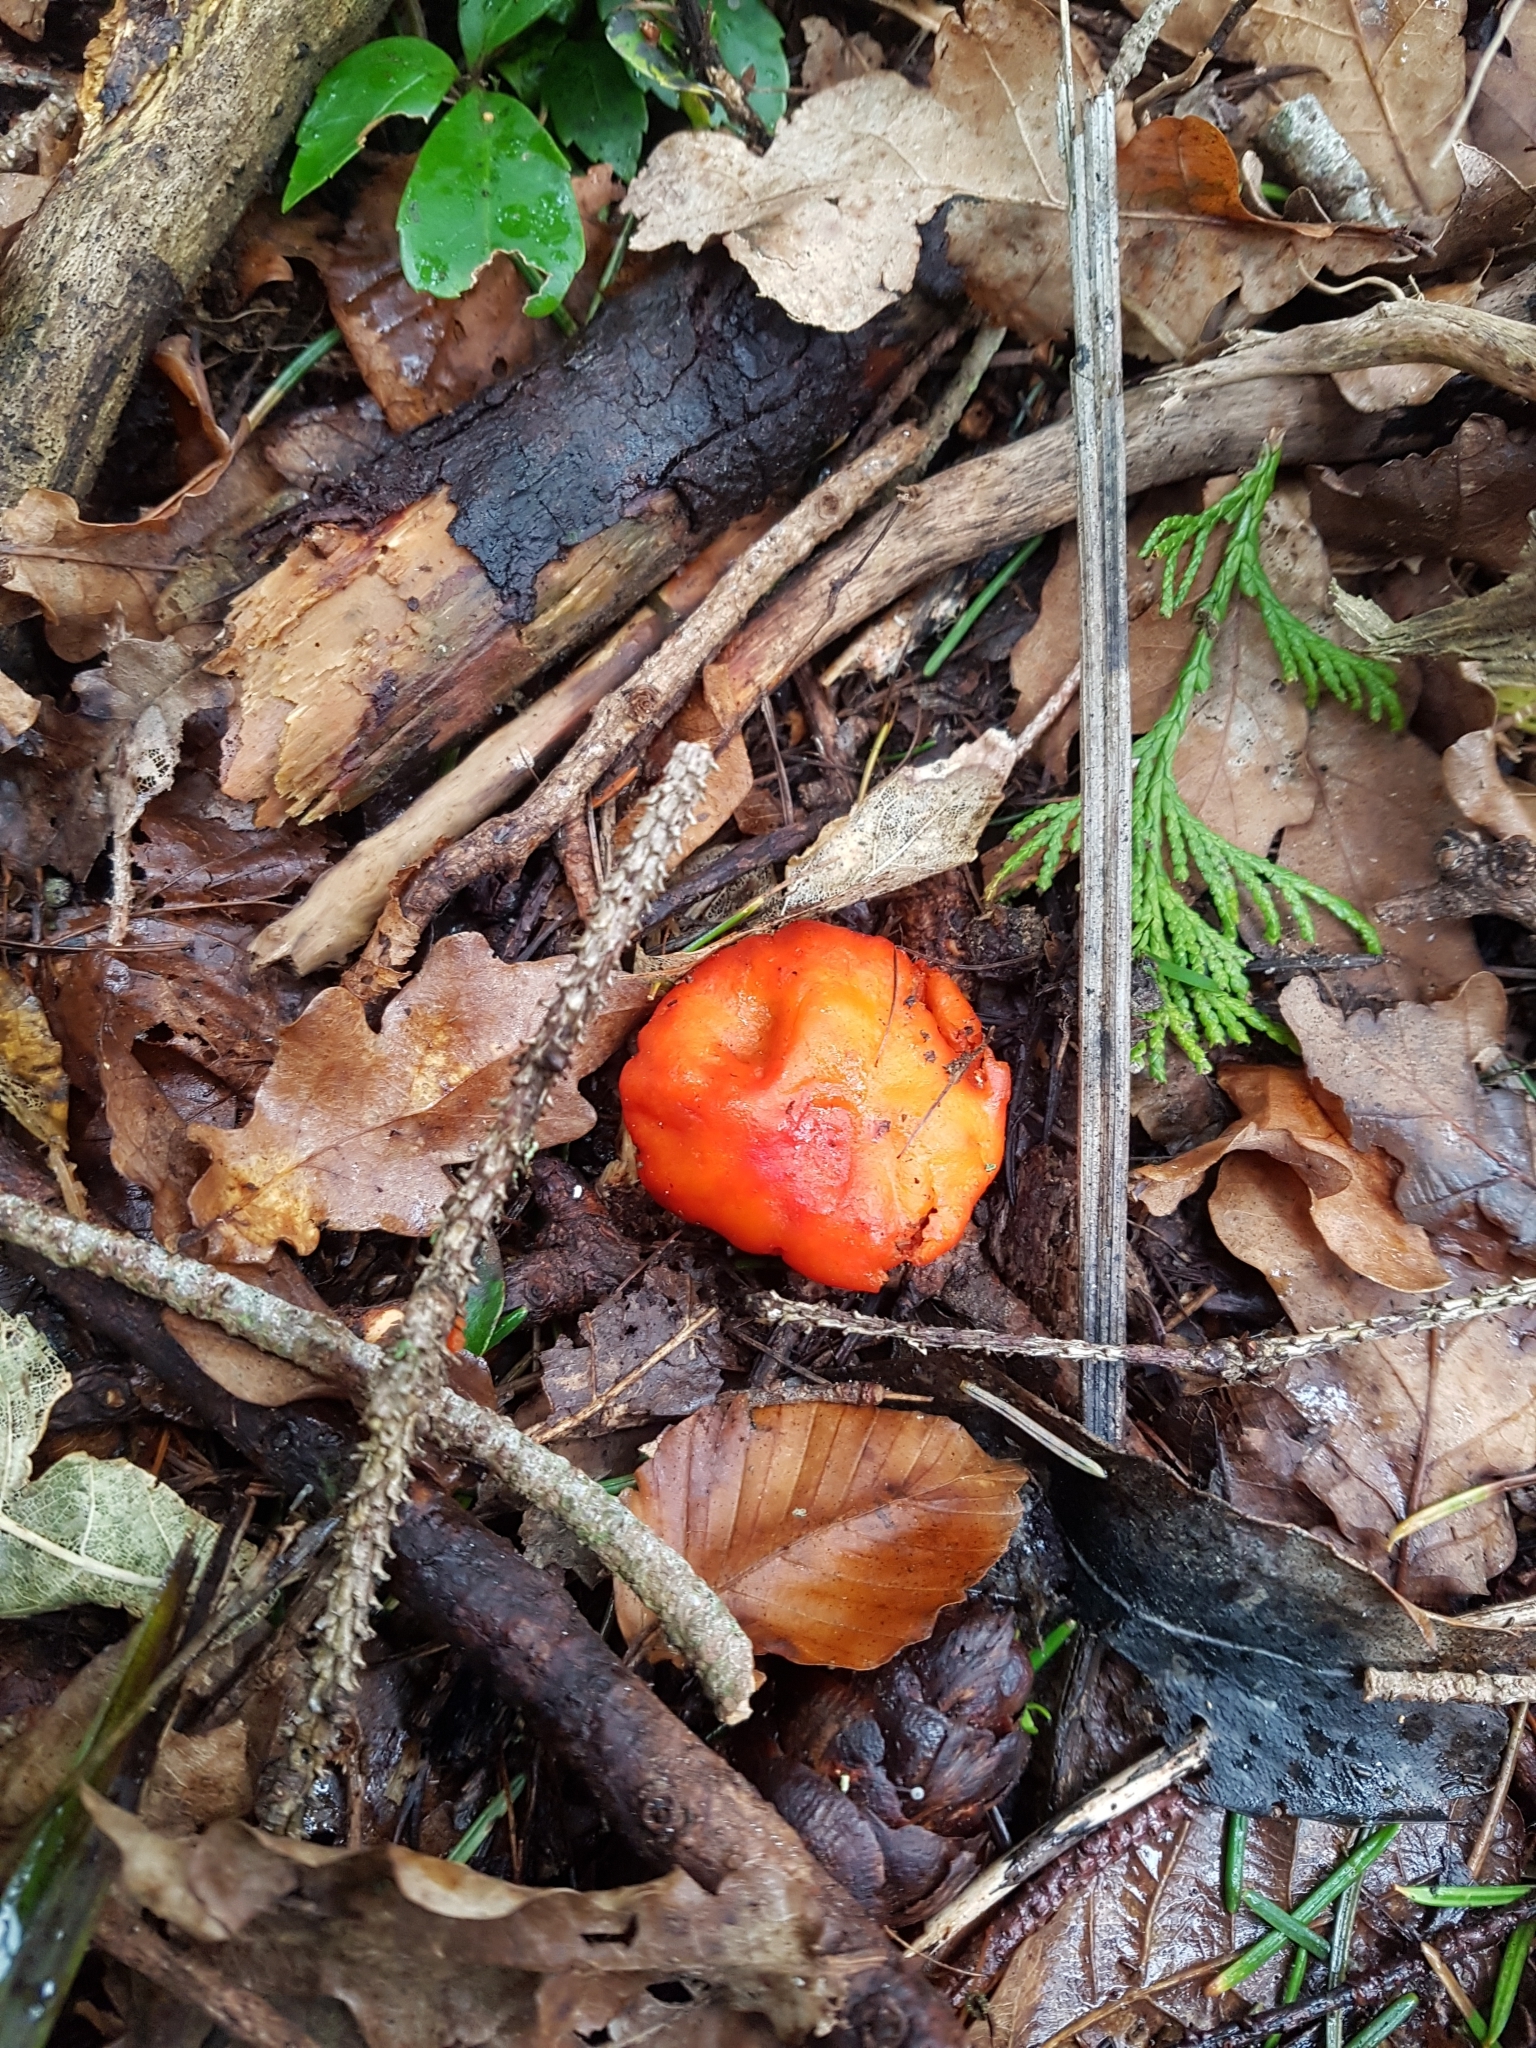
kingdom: Fungi
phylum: Basidiomycota
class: Agaricomycetes
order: Agaricales
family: Strophariaceae
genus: Leratiomyces
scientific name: Leratiomyces ceres
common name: Redlead roundhead
